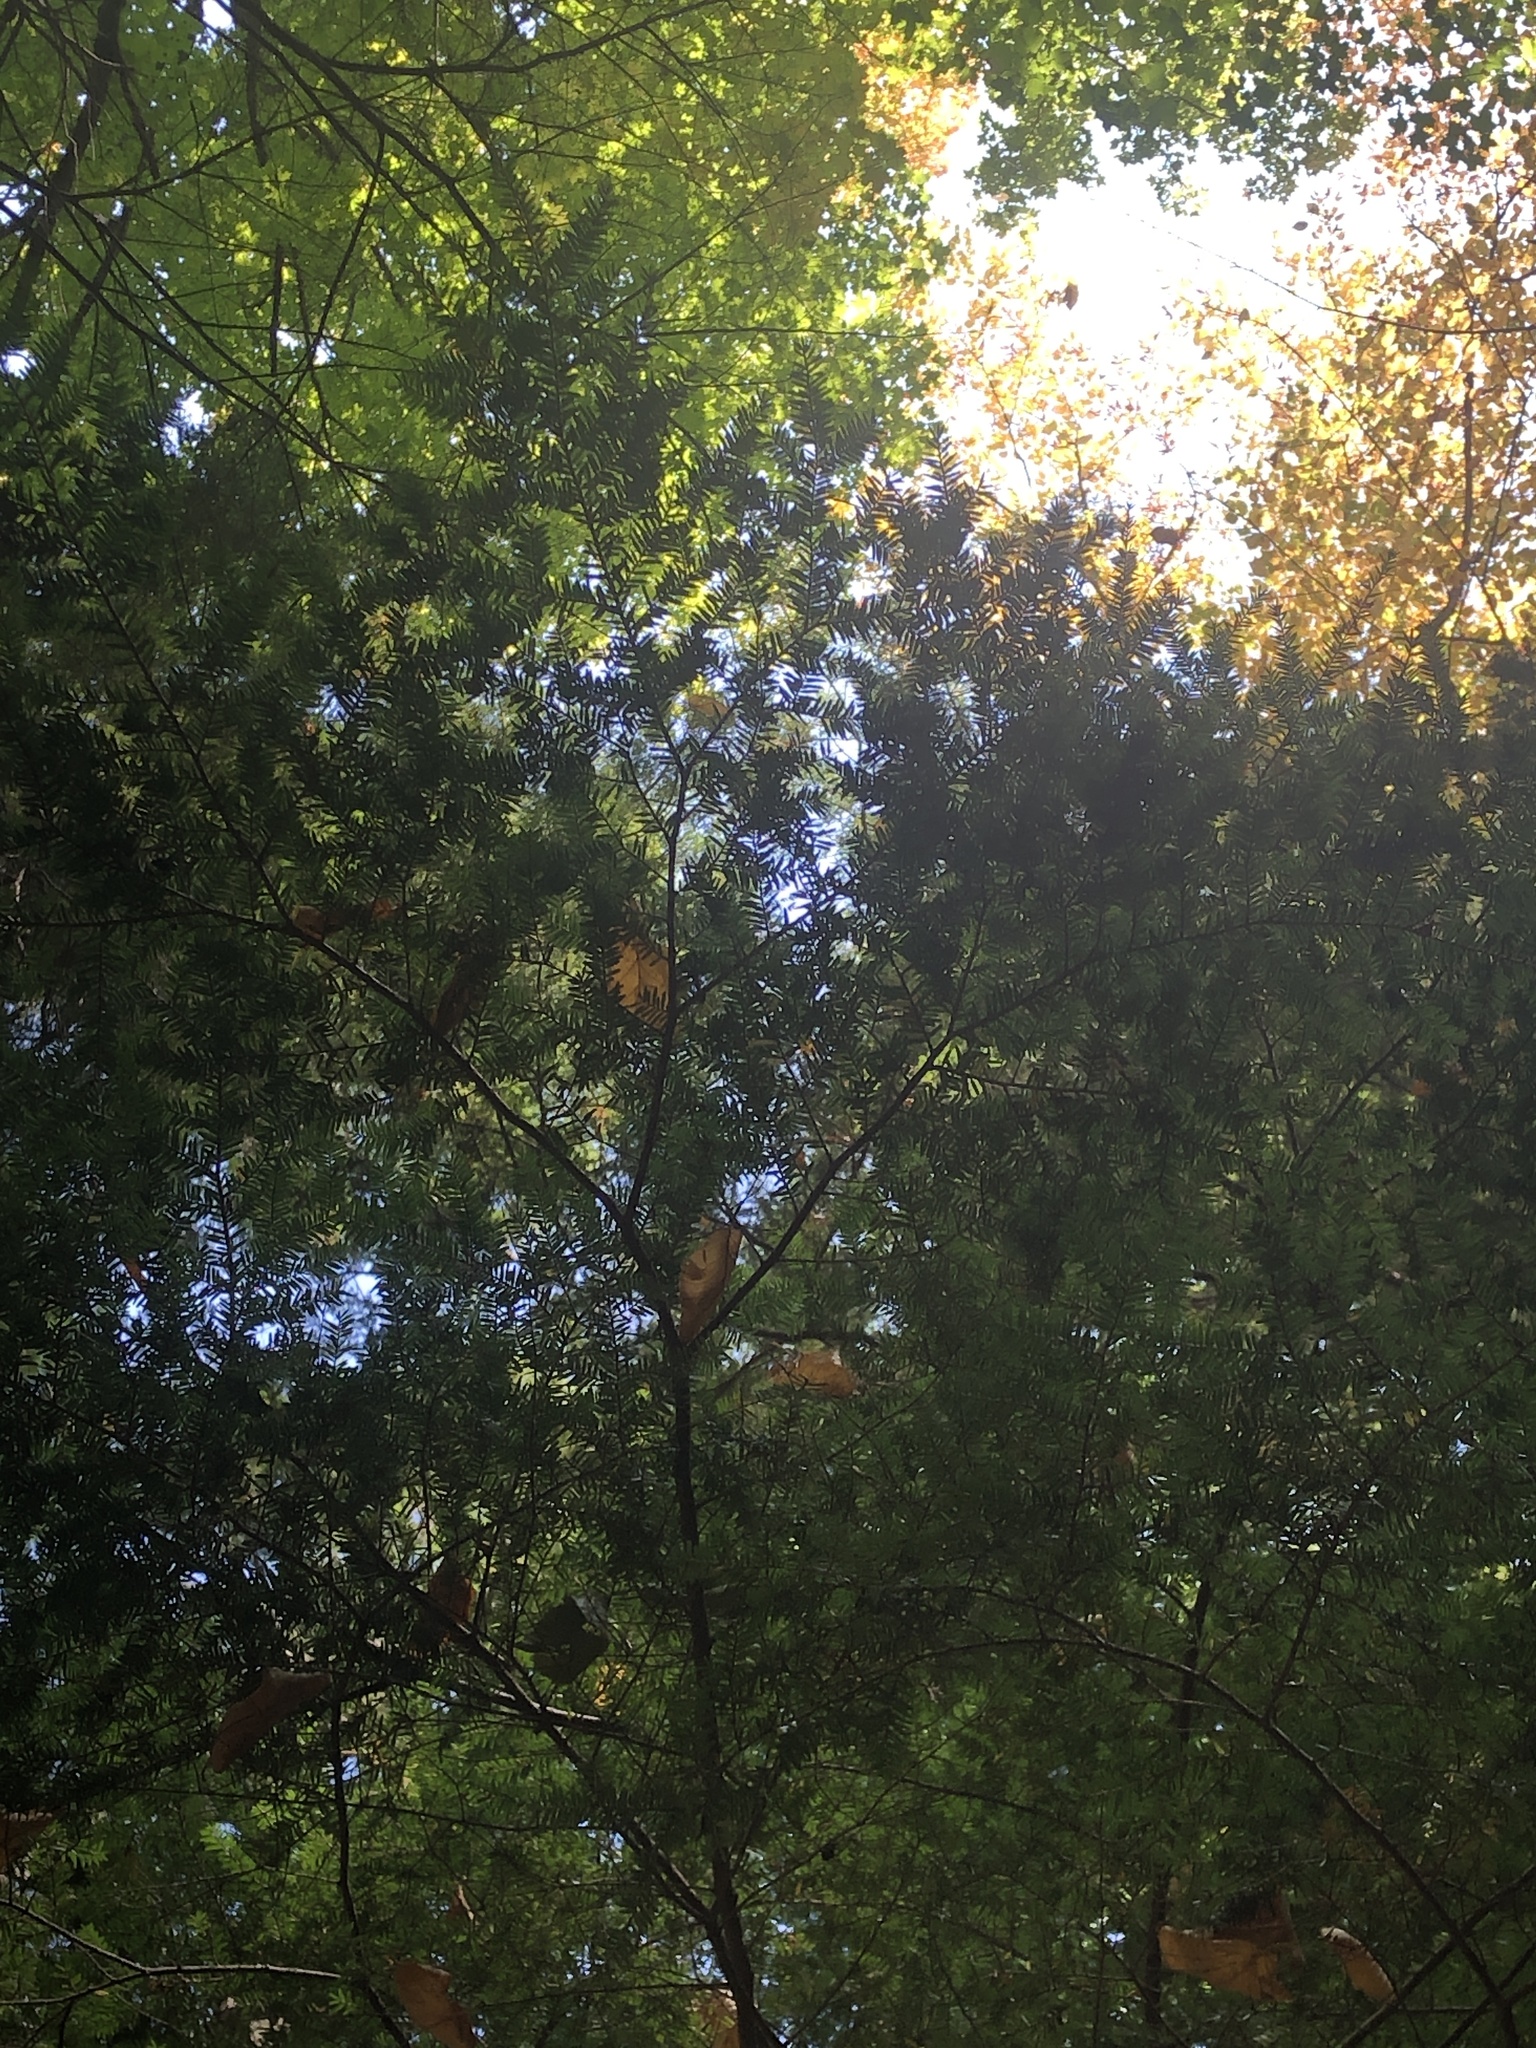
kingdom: Plantae
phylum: Tracheophyta
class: Pinopsida
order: Pinales
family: Pinaceae
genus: Tsuga
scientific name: Tsuga canadensis
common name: Eastern hemlock
